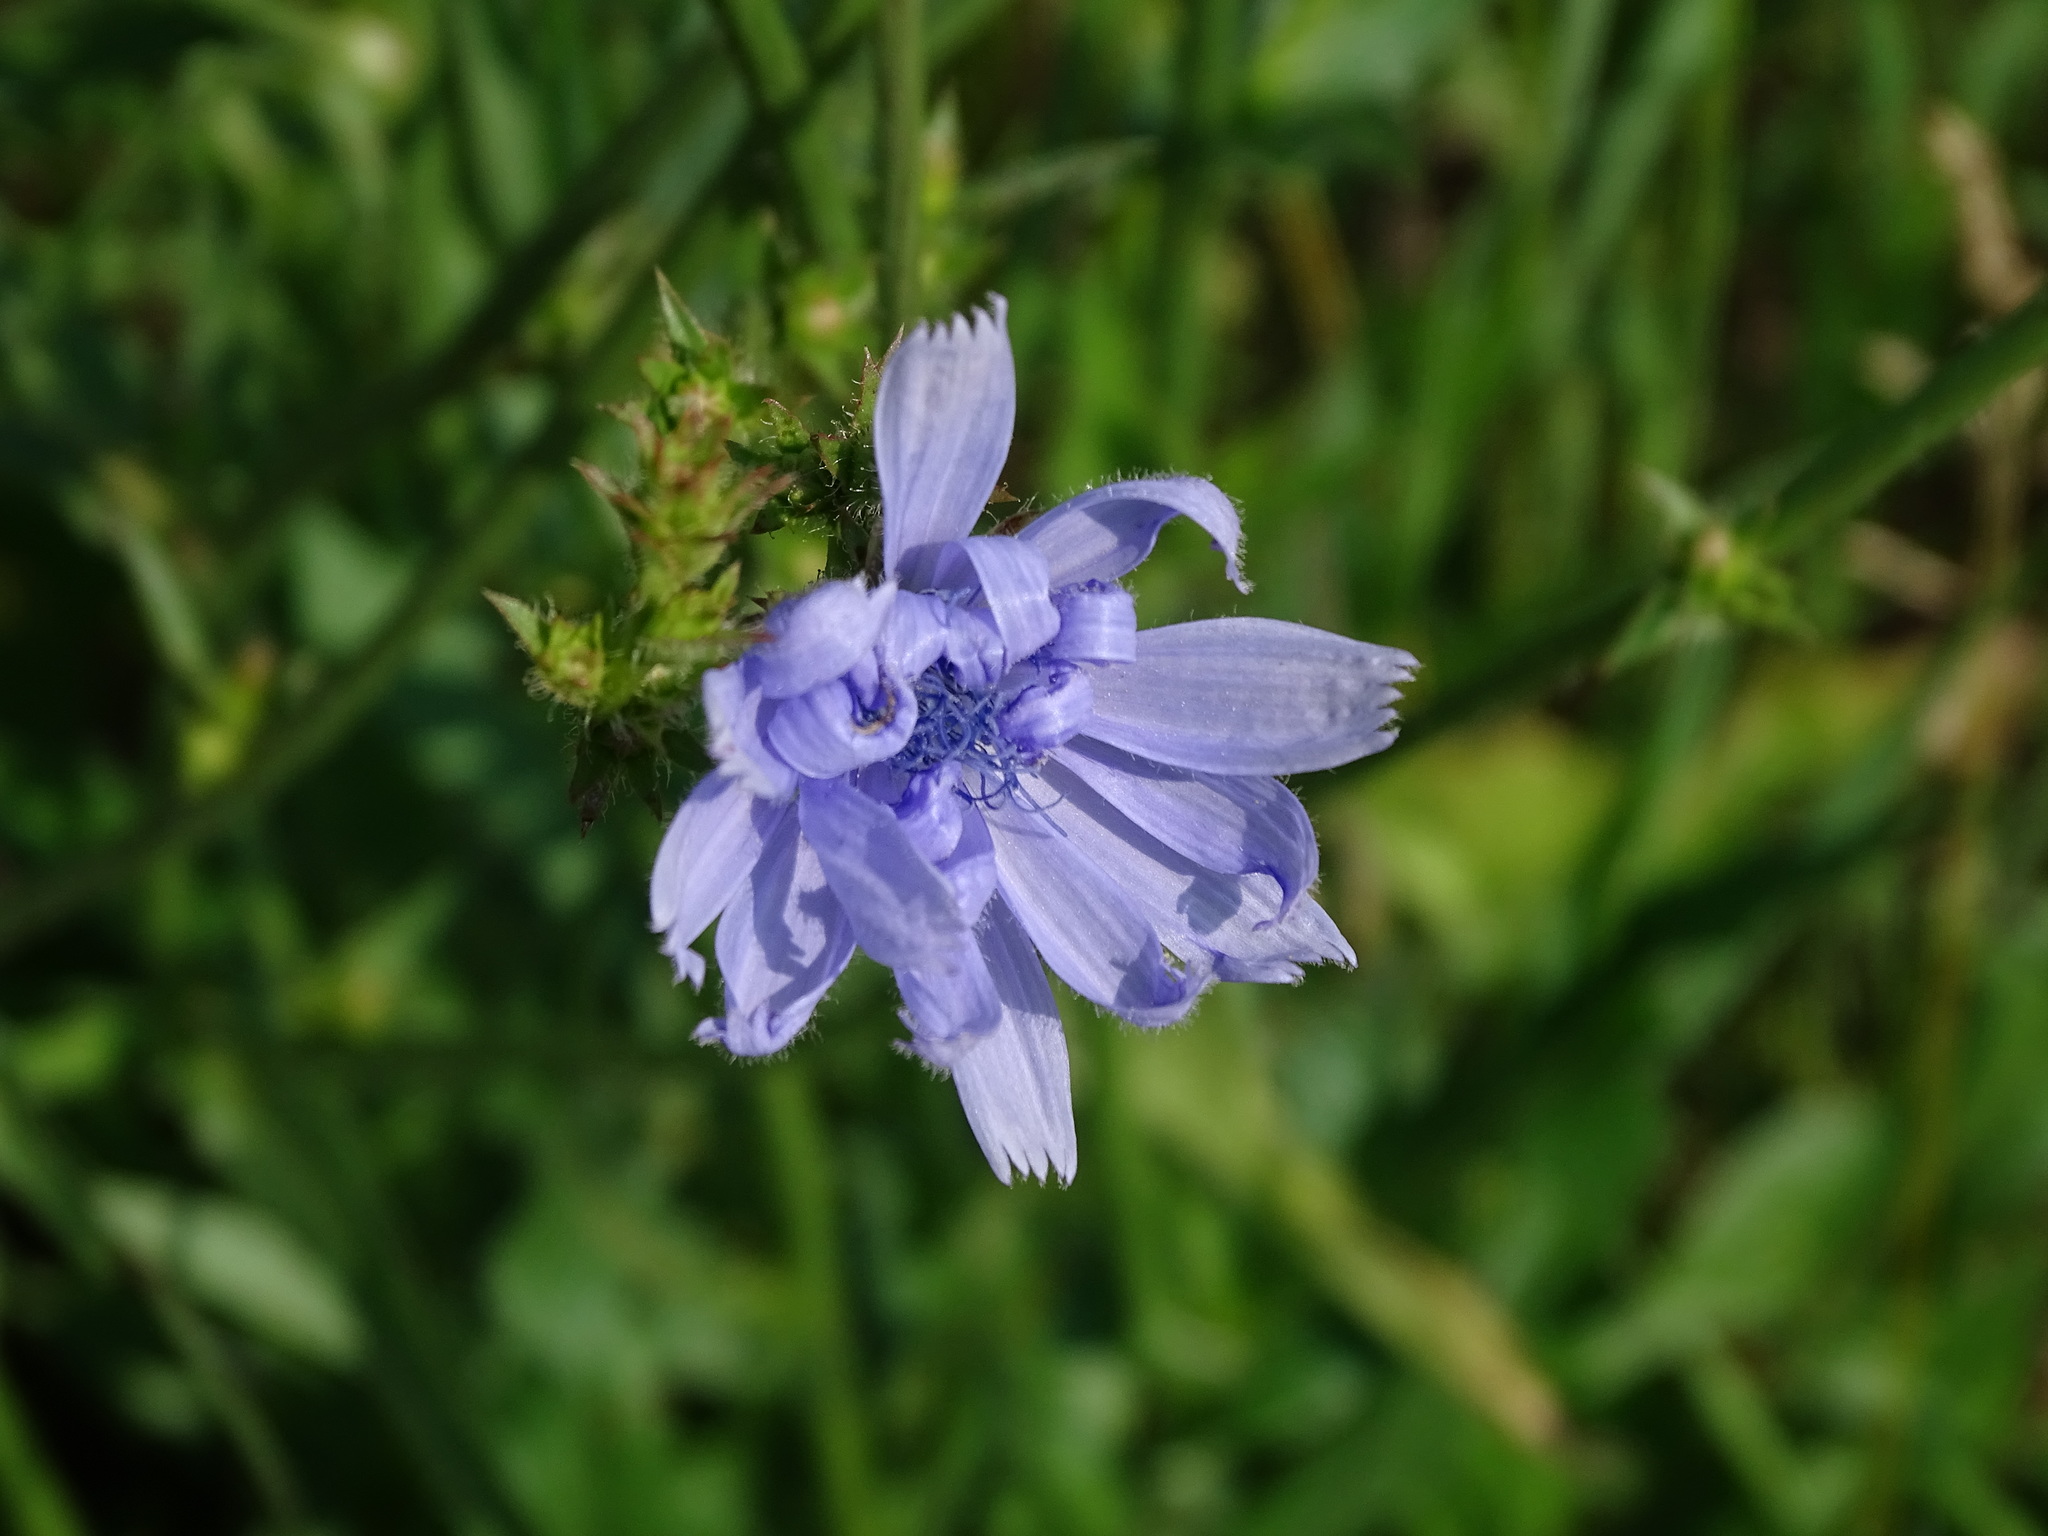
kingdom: Plantae
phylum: Tracheophyta
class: Magnoliopsida
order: Asterales
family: Asteraceae
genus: Cichorium
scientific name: Cichorium intybus
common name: Chicory
